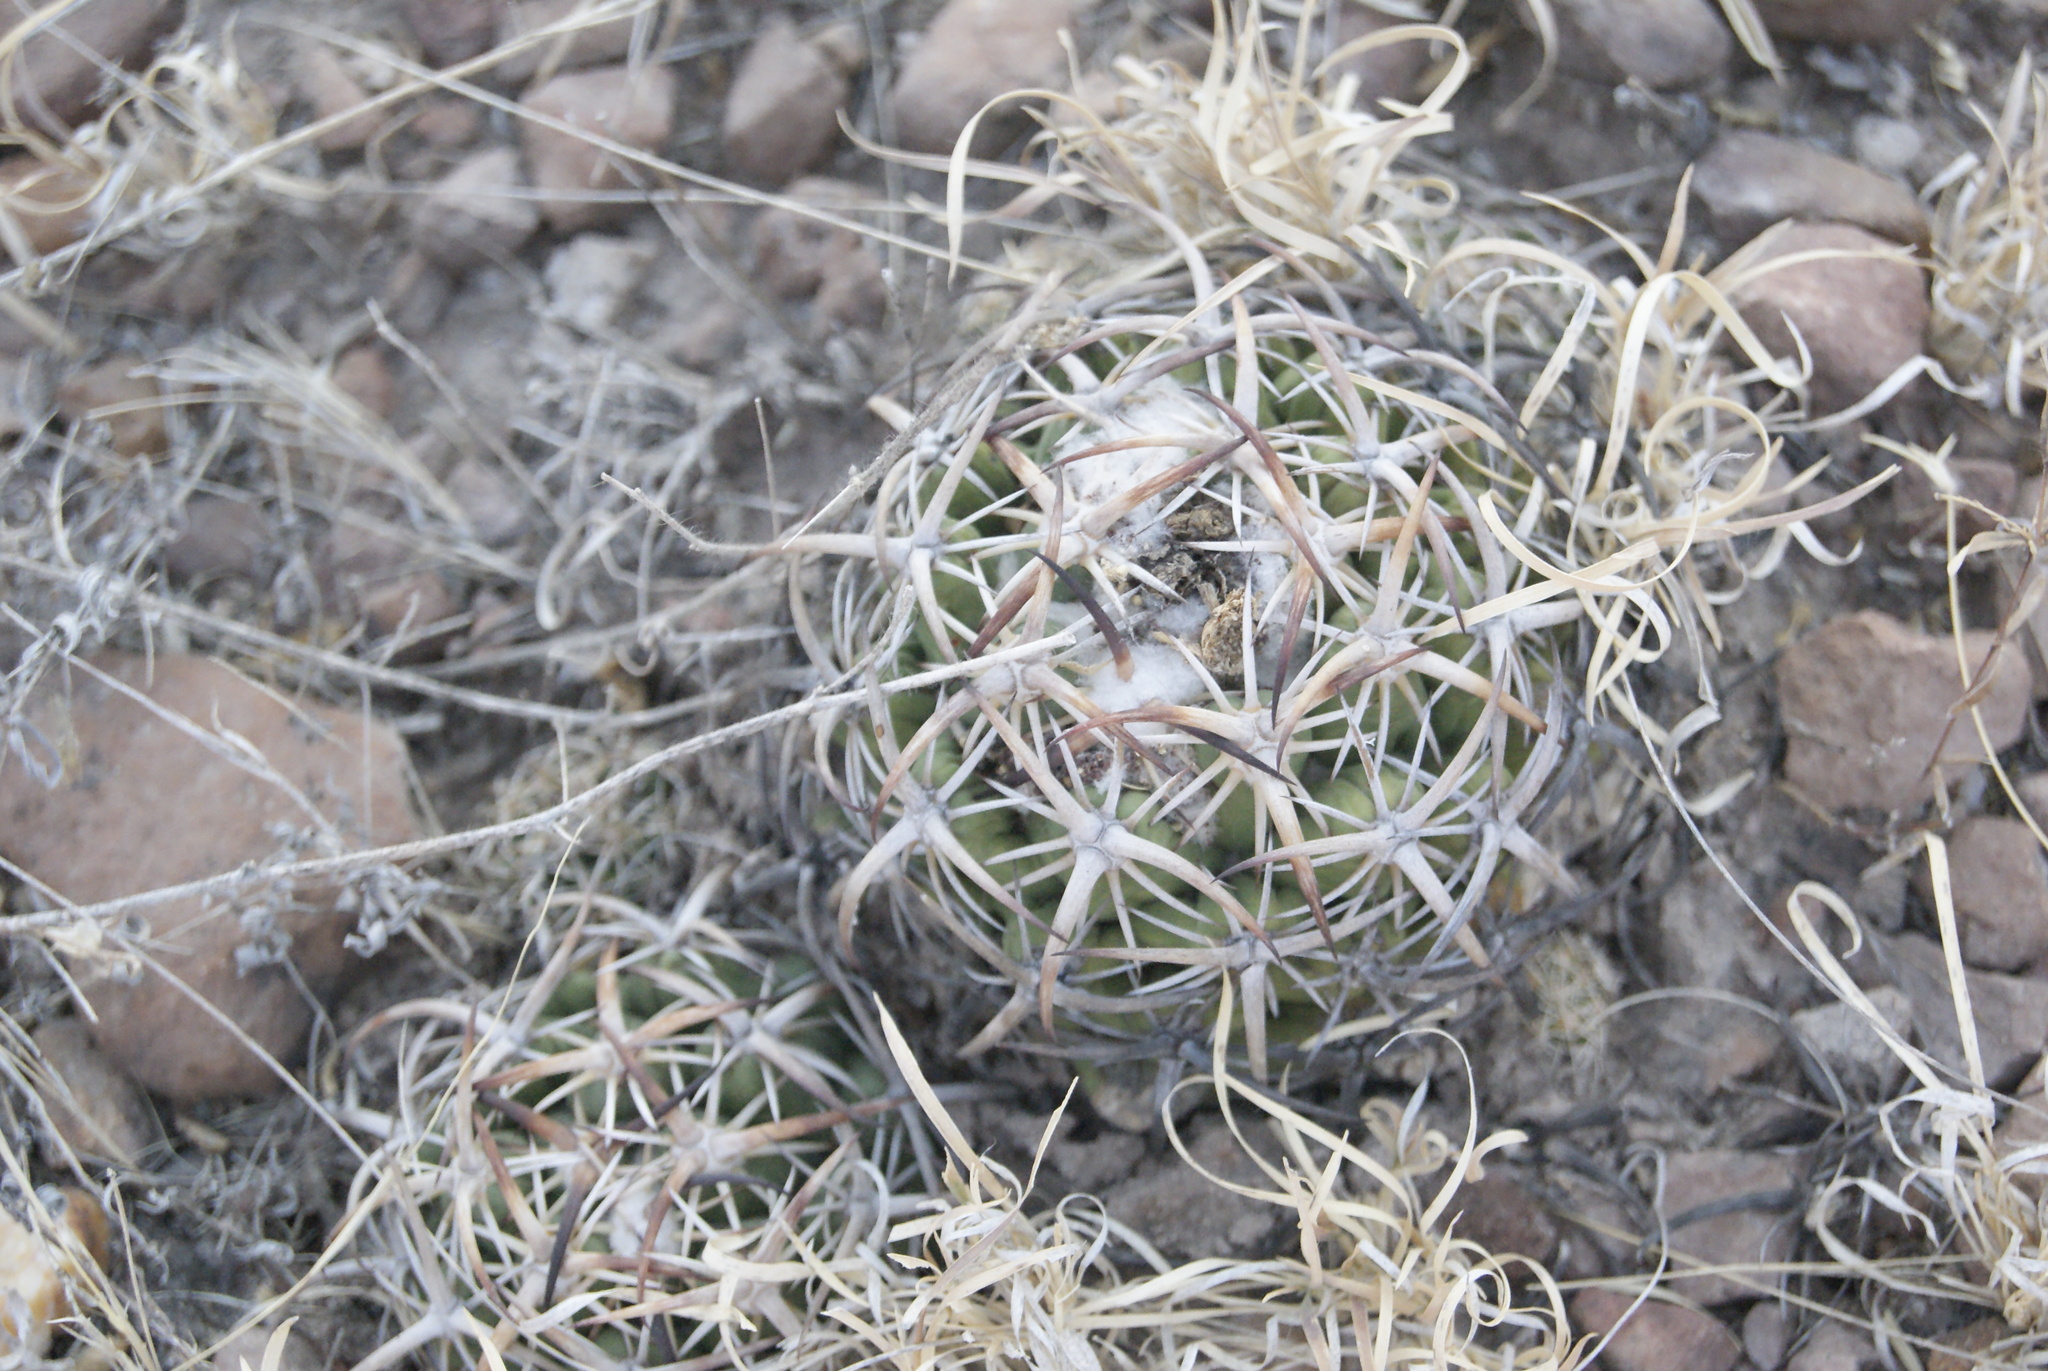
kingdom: Plantae
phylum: Tracheophyta
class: Magnoliopsida
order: Caryophyllales
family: Cactaceae
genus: Coryphantha
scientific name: Coryphantha tripugionacantha
